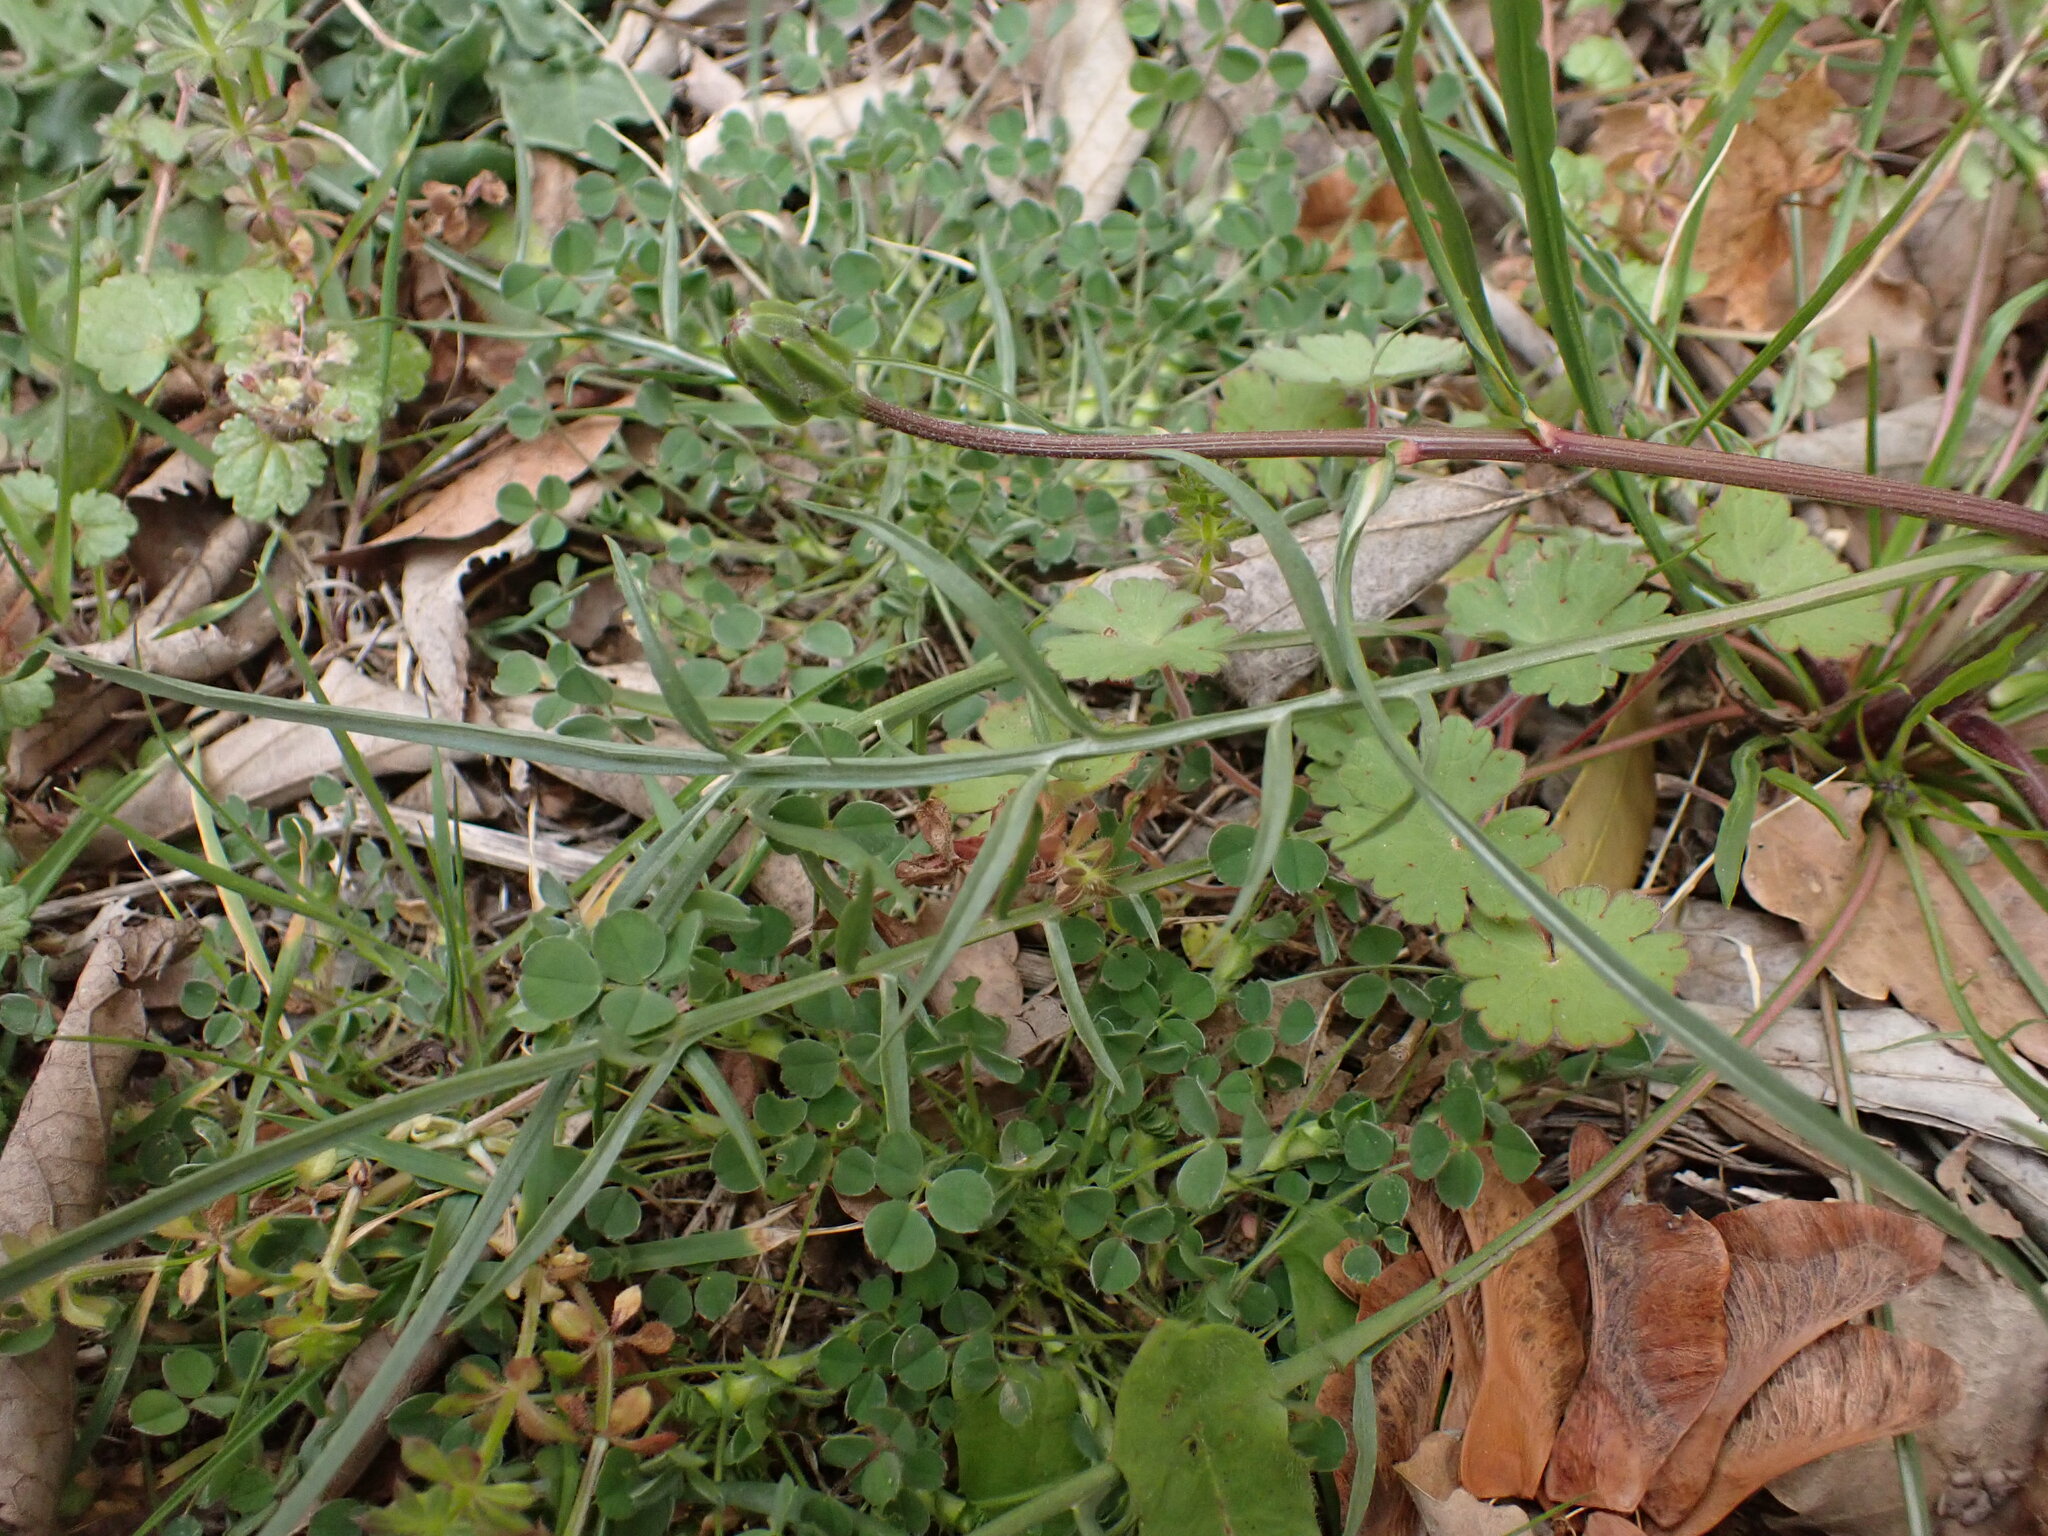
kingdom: Plantae
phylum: Tracheophyta
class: Magnoliopsida
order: Asterales
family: Asteraceae
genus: Scorzonera
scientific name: Scorzonera laciniata
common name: Cutleaf vipergrass
